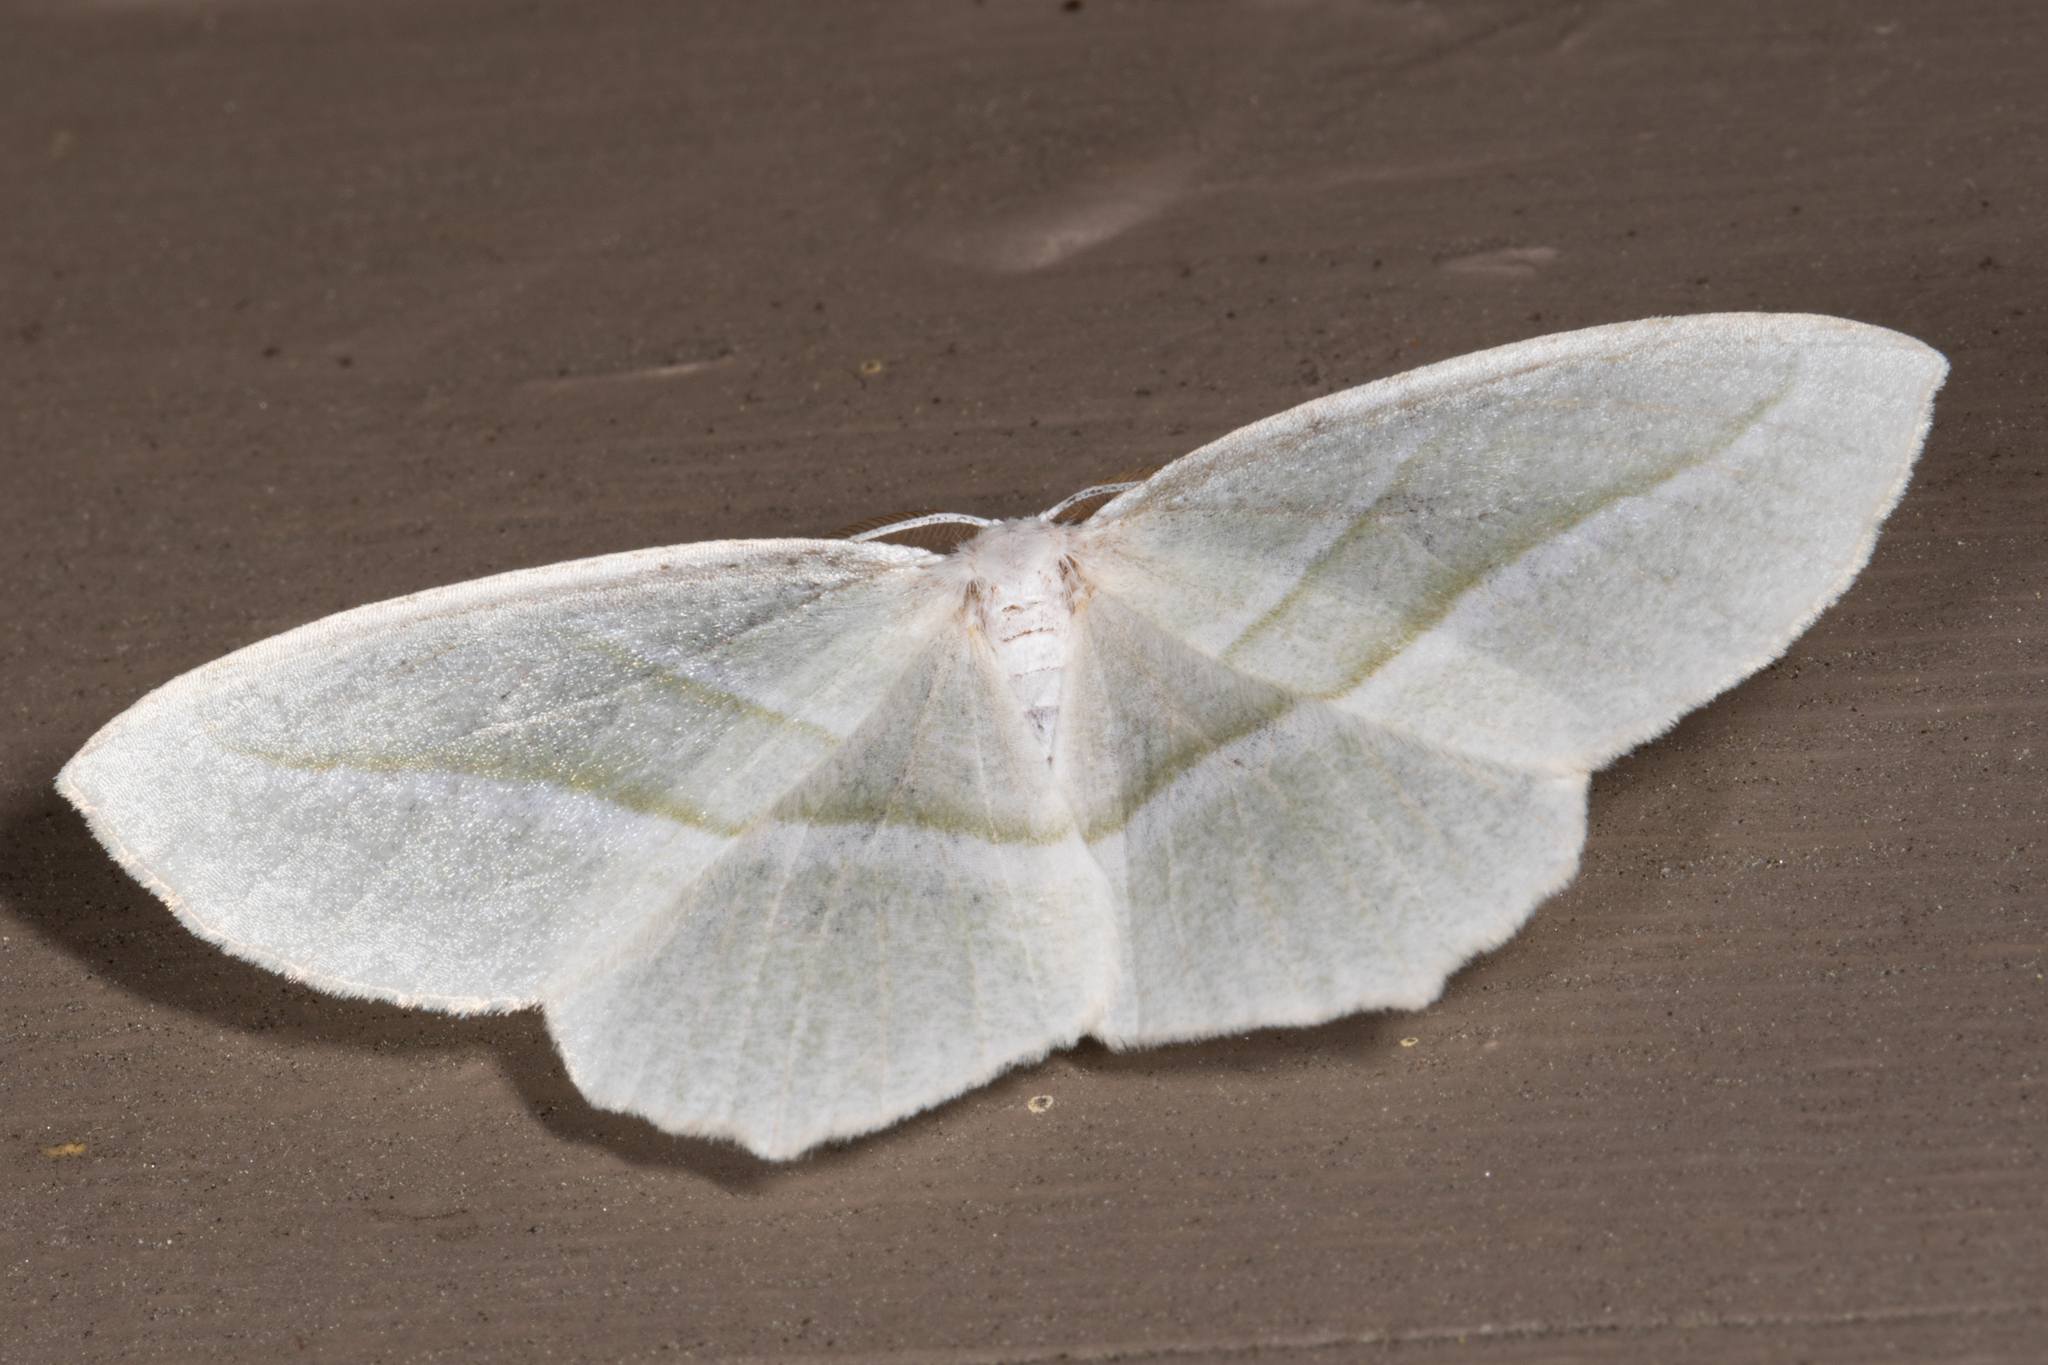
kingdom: Animalia
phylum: Arthropoda
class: Insecta
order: Lepidoptera
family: Geometridae
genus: Campaea
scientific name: Campaea perlata
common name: Fringed looper
